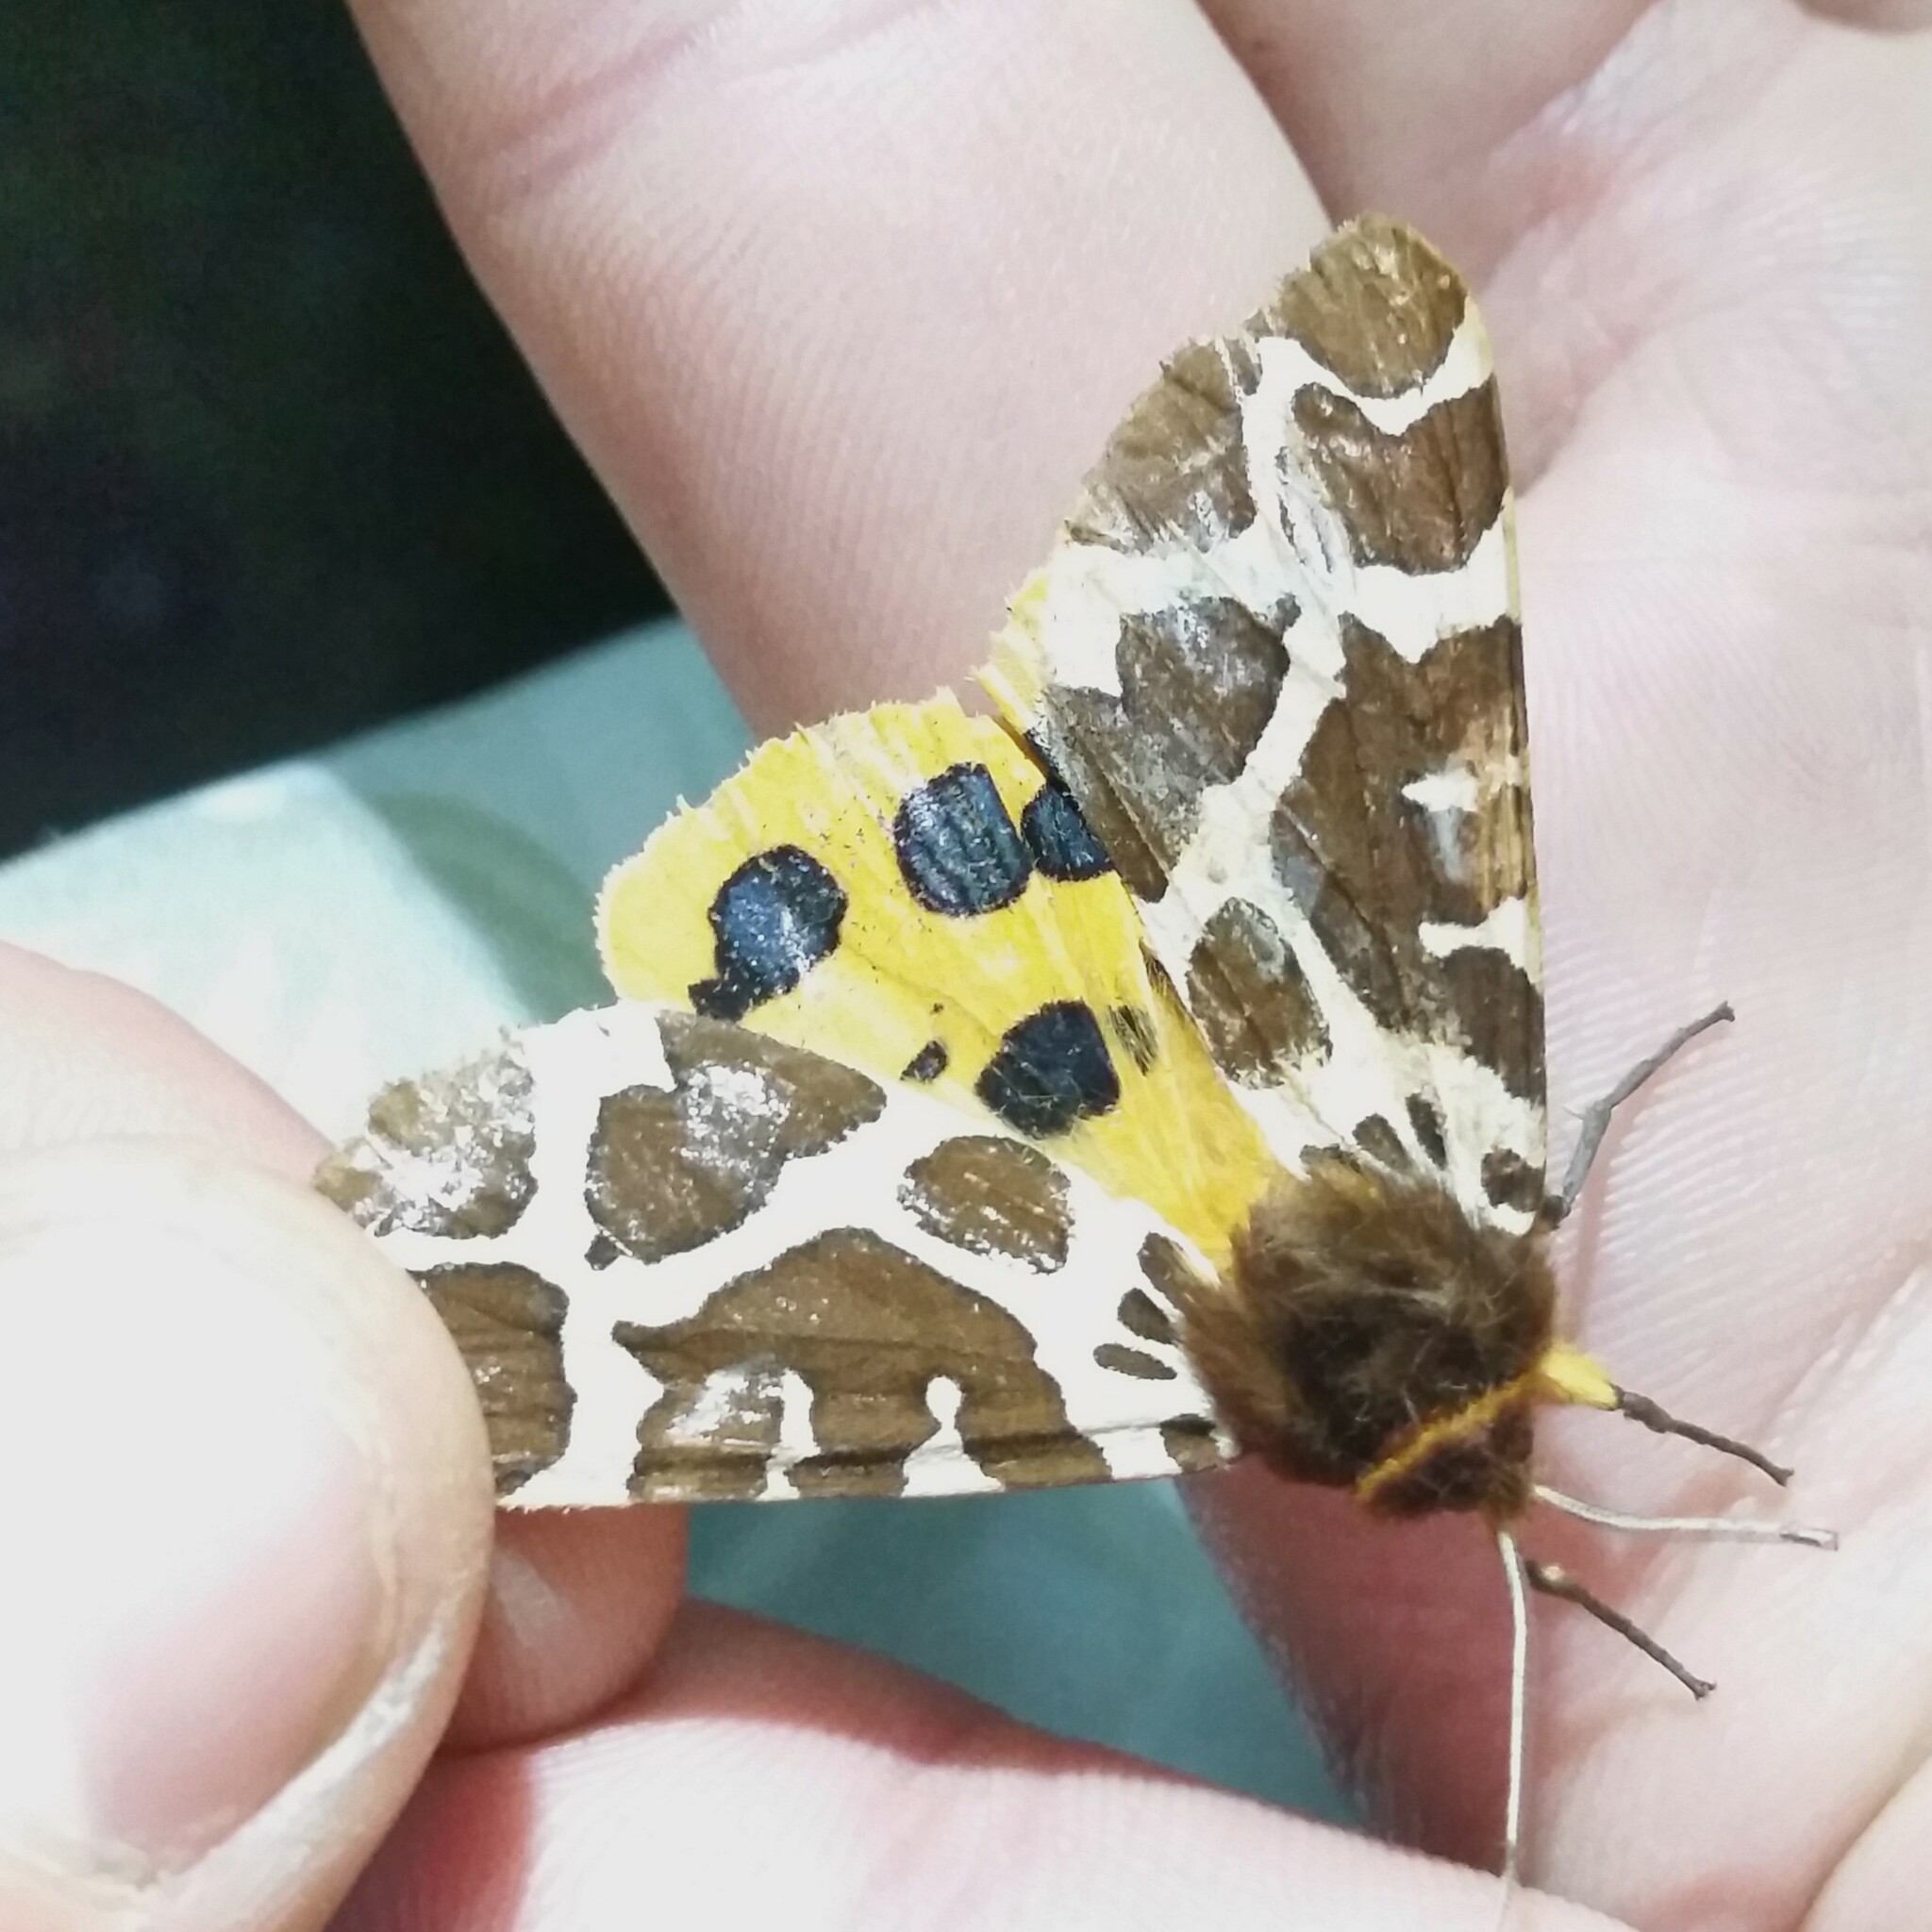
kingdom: Animalia
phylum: Arthropoda
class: Insecta
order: Lepidoptera
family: Erebidae
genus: Arctia
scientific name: Arctia caja
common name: Garden tiger
